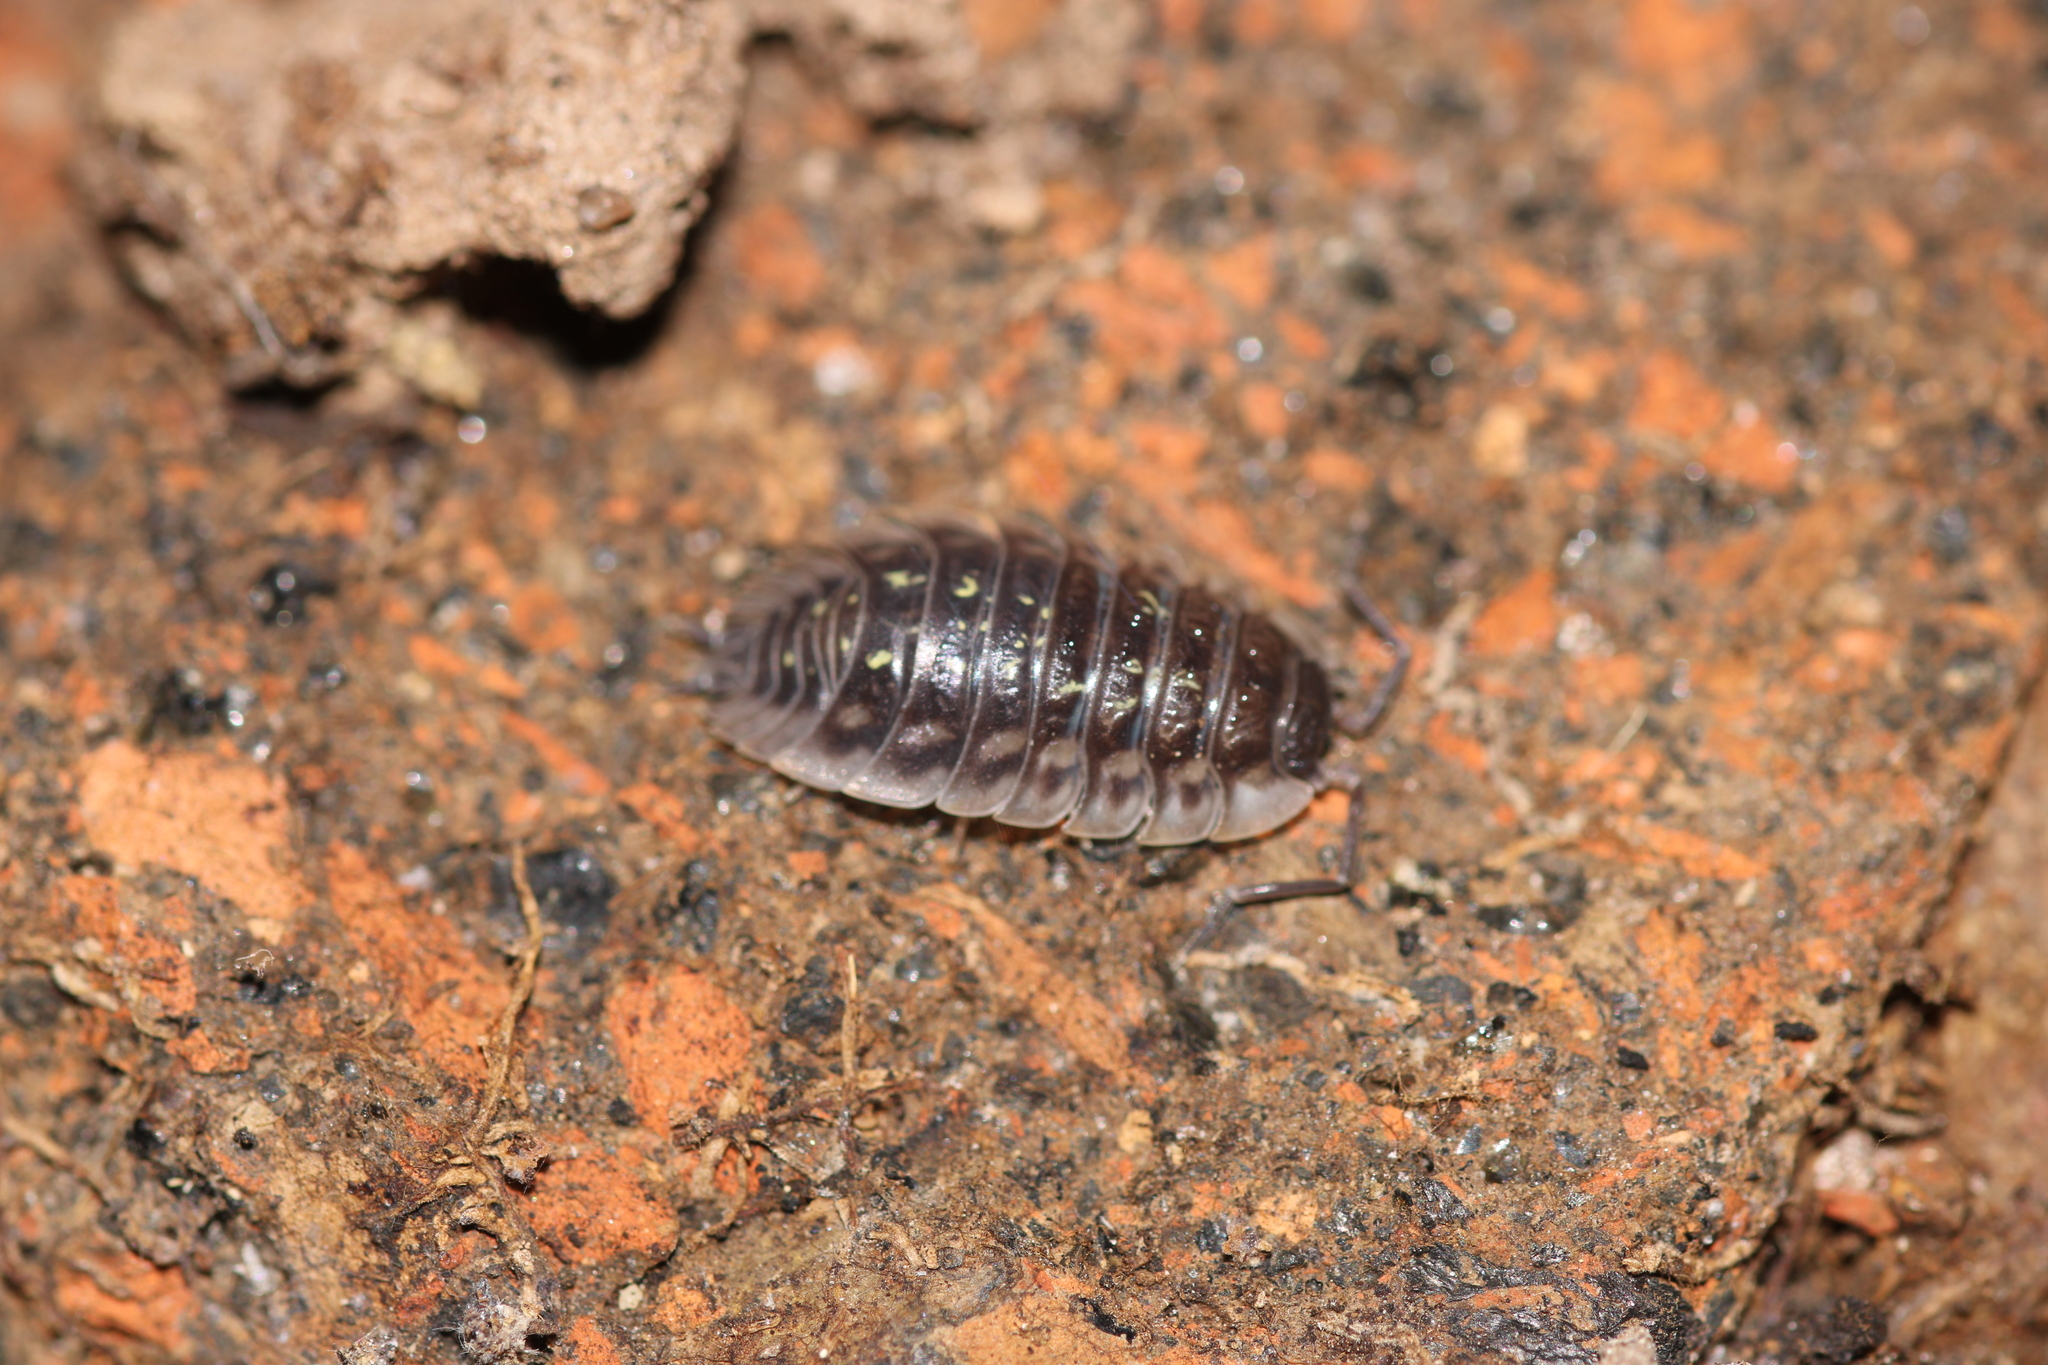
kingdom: Animalia
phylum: Arthropoda
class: Malacostraca
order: Isopoda
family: Oniscidae
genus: Oniscus
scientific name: Oniscus asellus
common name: Common shiny woodlouse
